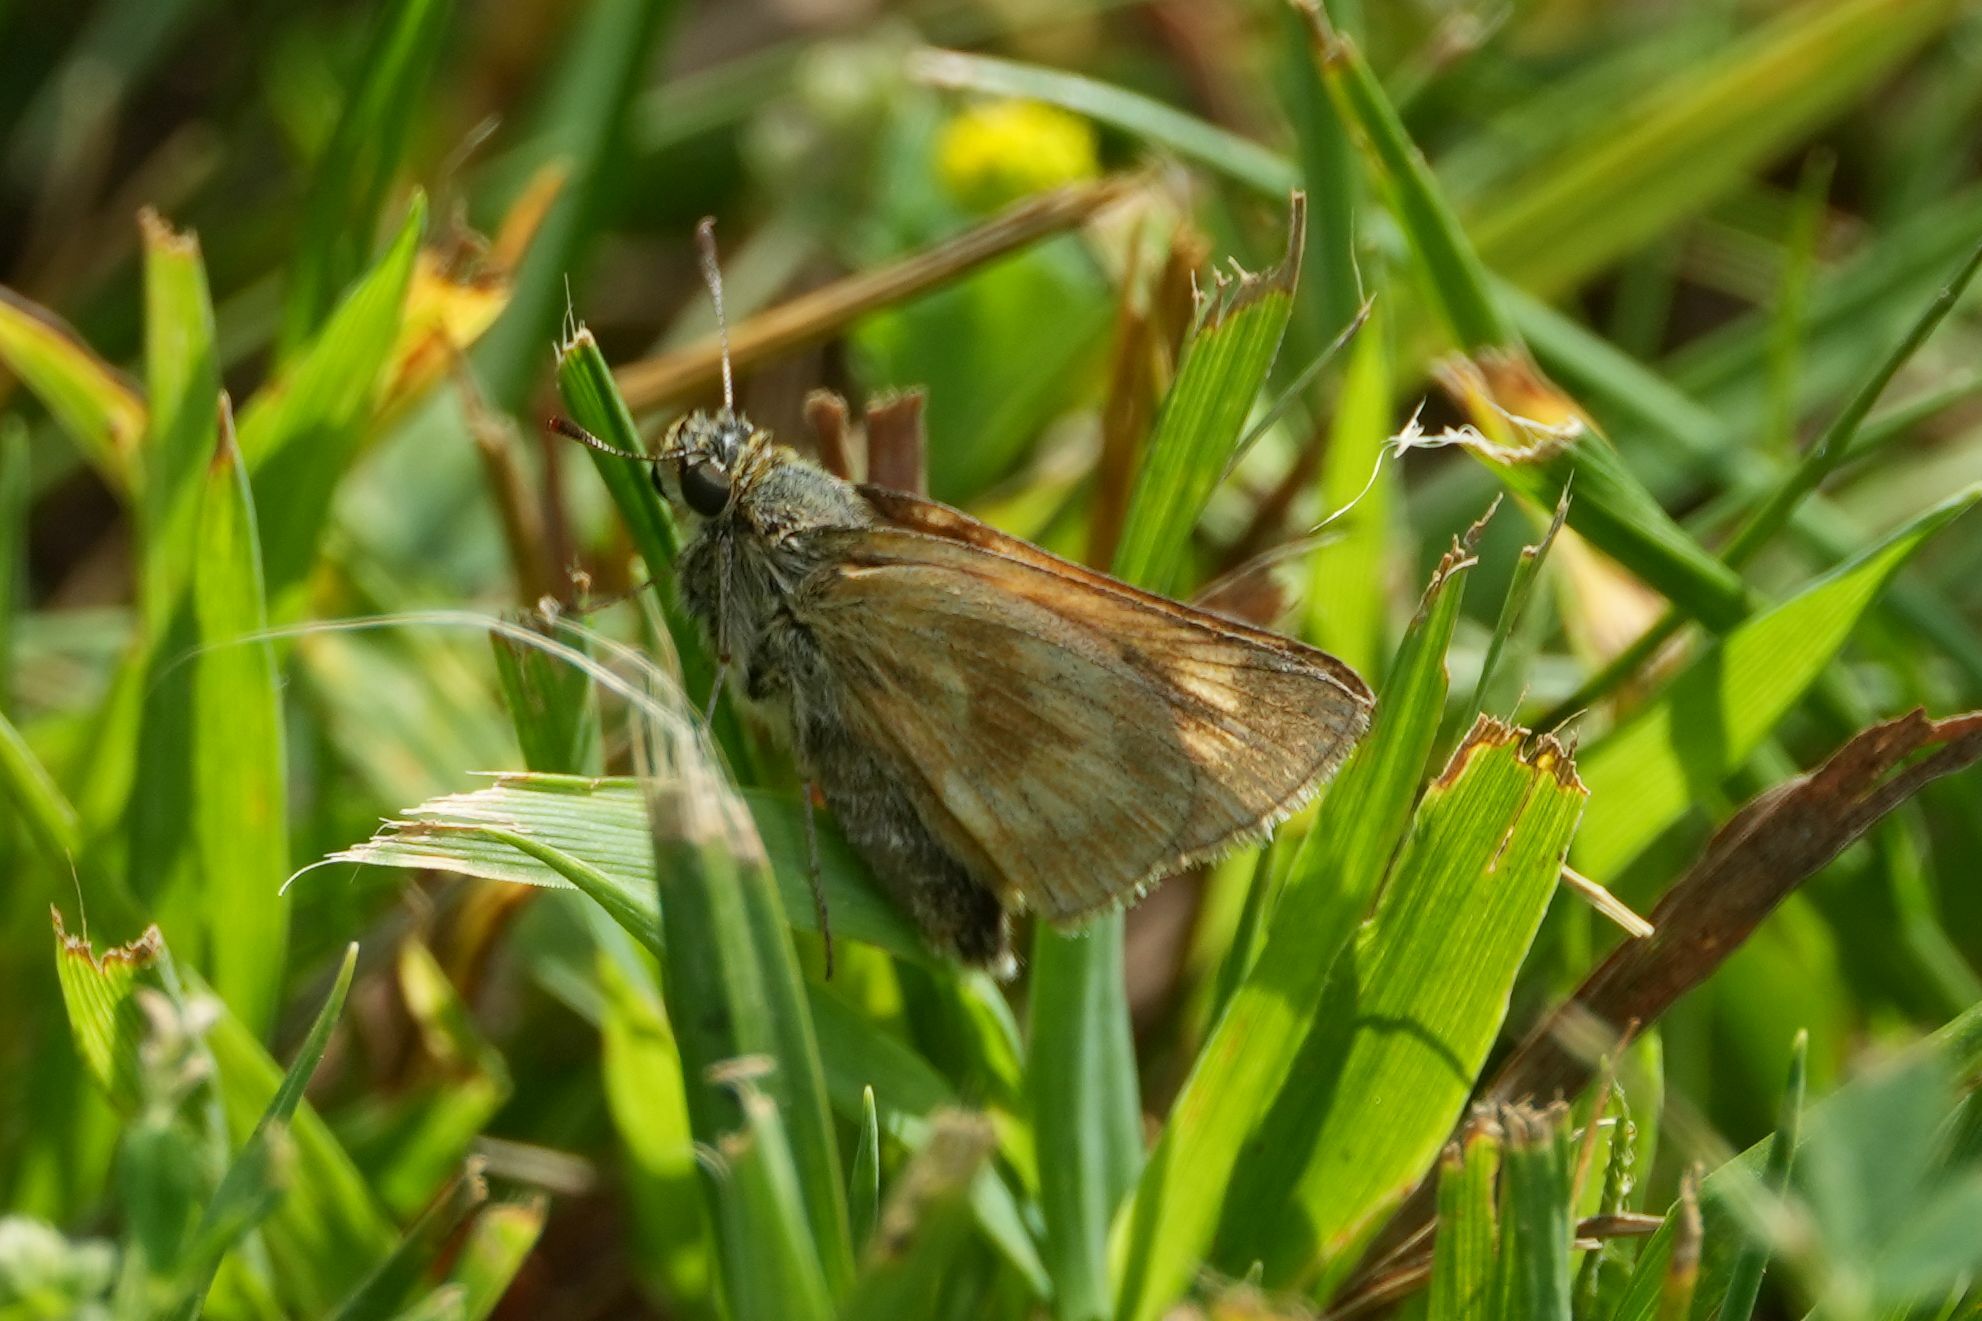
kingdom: Animalia
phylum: Arthropoda
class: Insecta
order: Lepidoptera
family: Hesperiidae
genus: Polites
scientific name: Polites mystic
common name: Long dash
